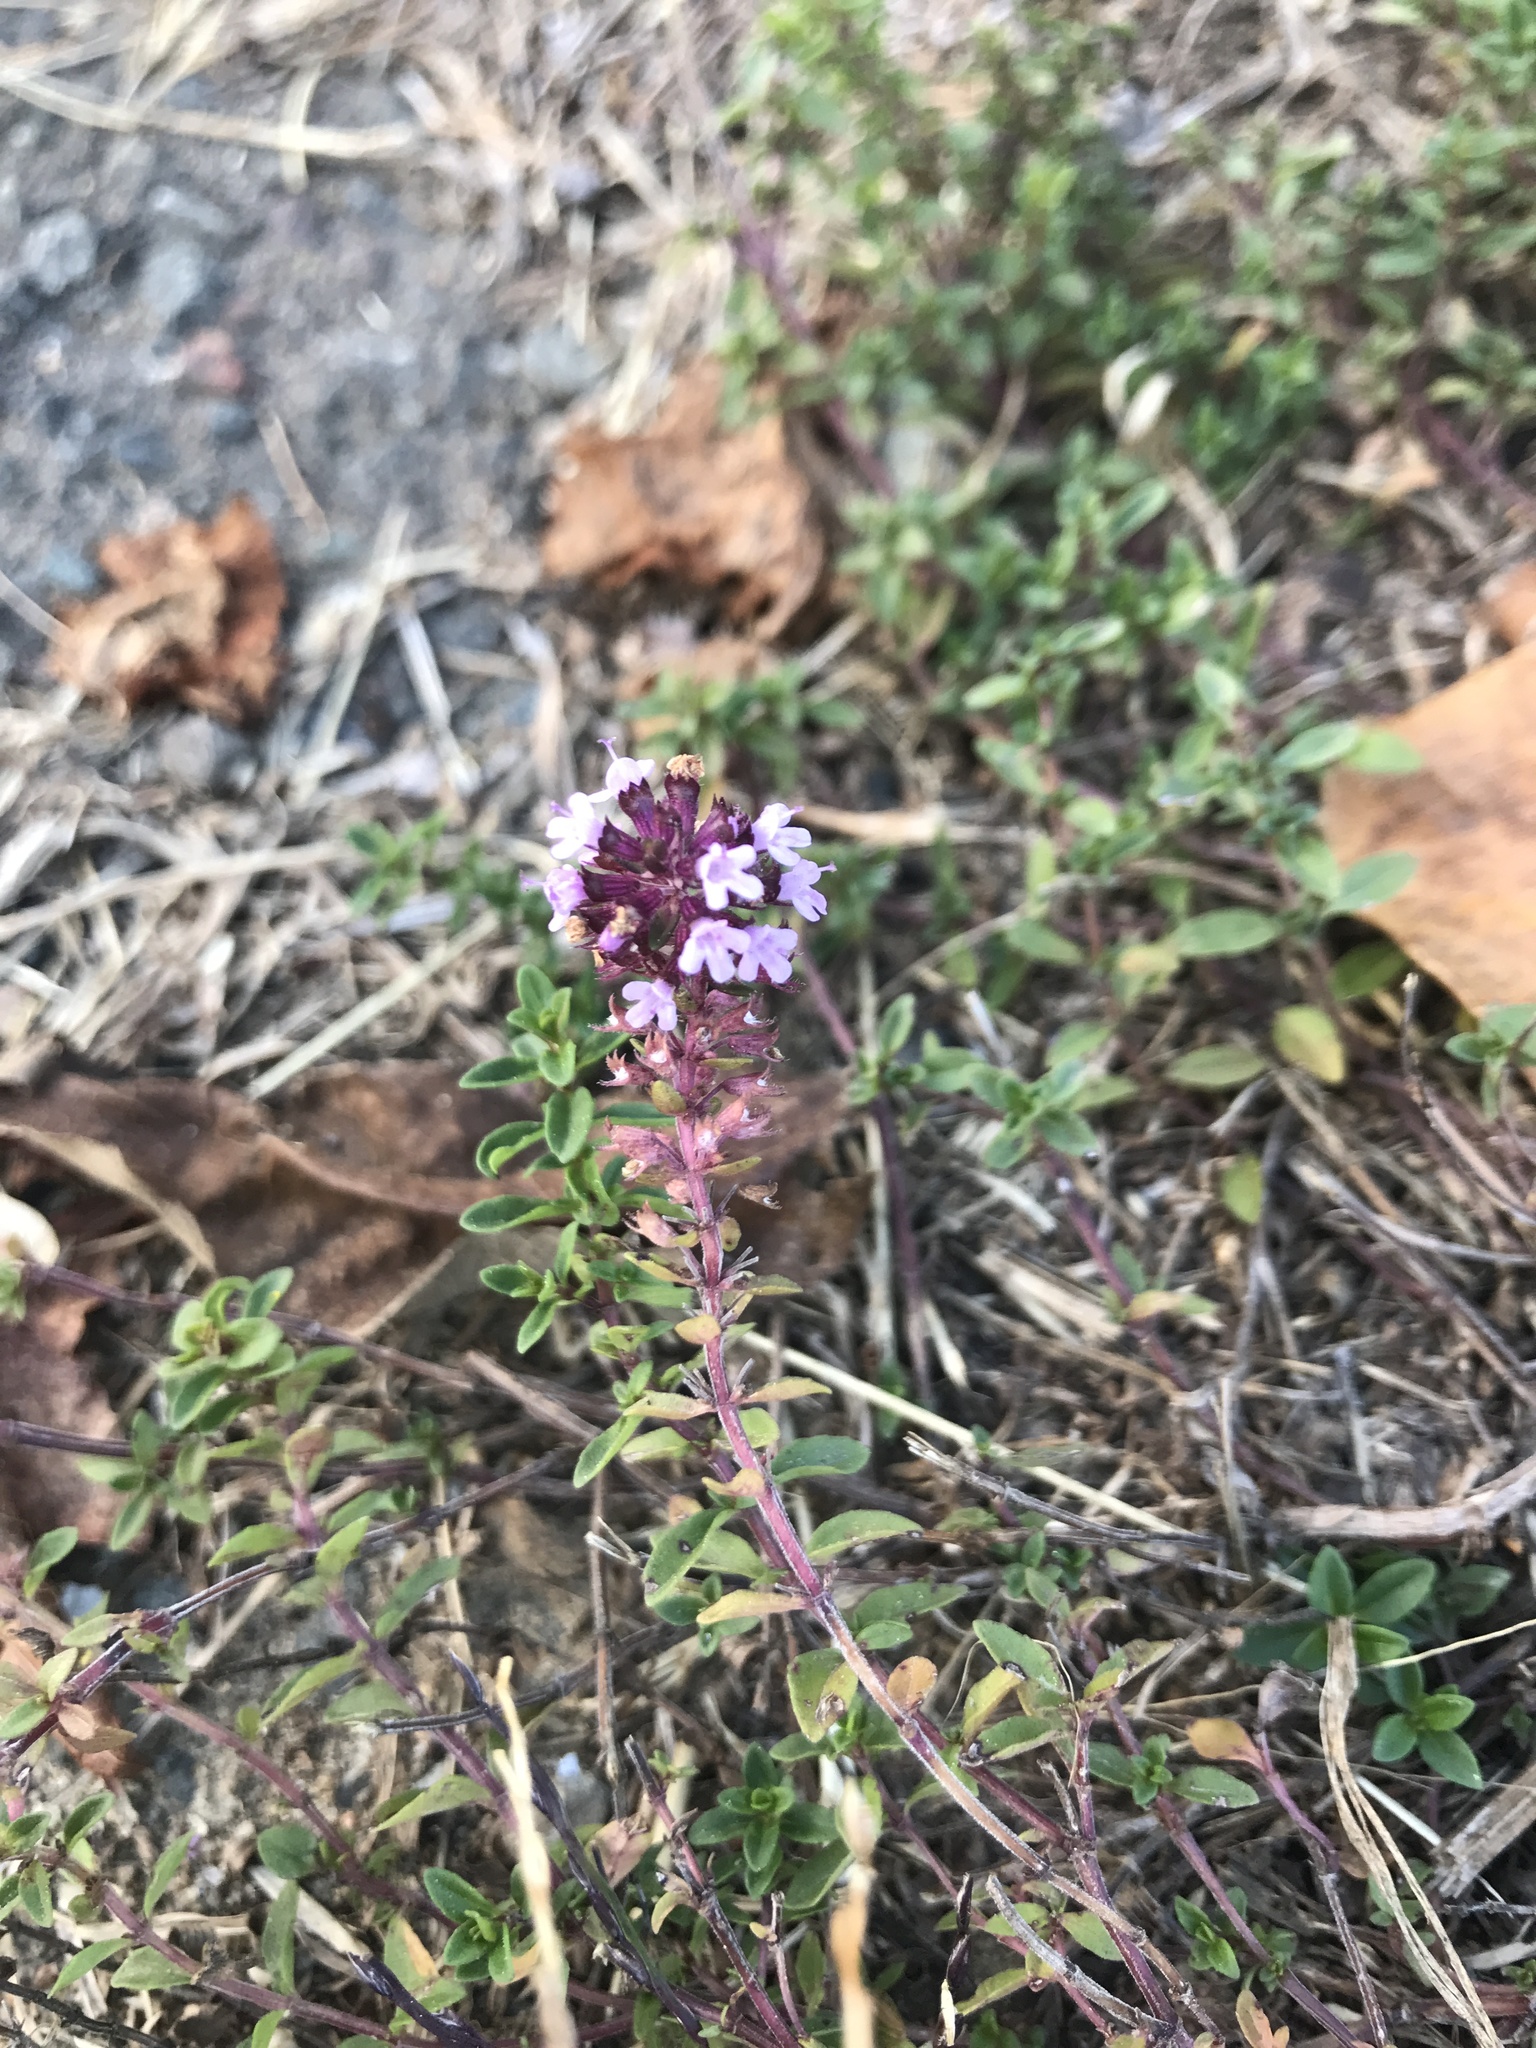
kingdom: Plantae
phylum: Tracheophyta
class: Magnoliopsida
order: Lamiales
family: Lamiaceae
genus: Thymus
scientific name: Thymus pulegioides
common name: Large thyme
